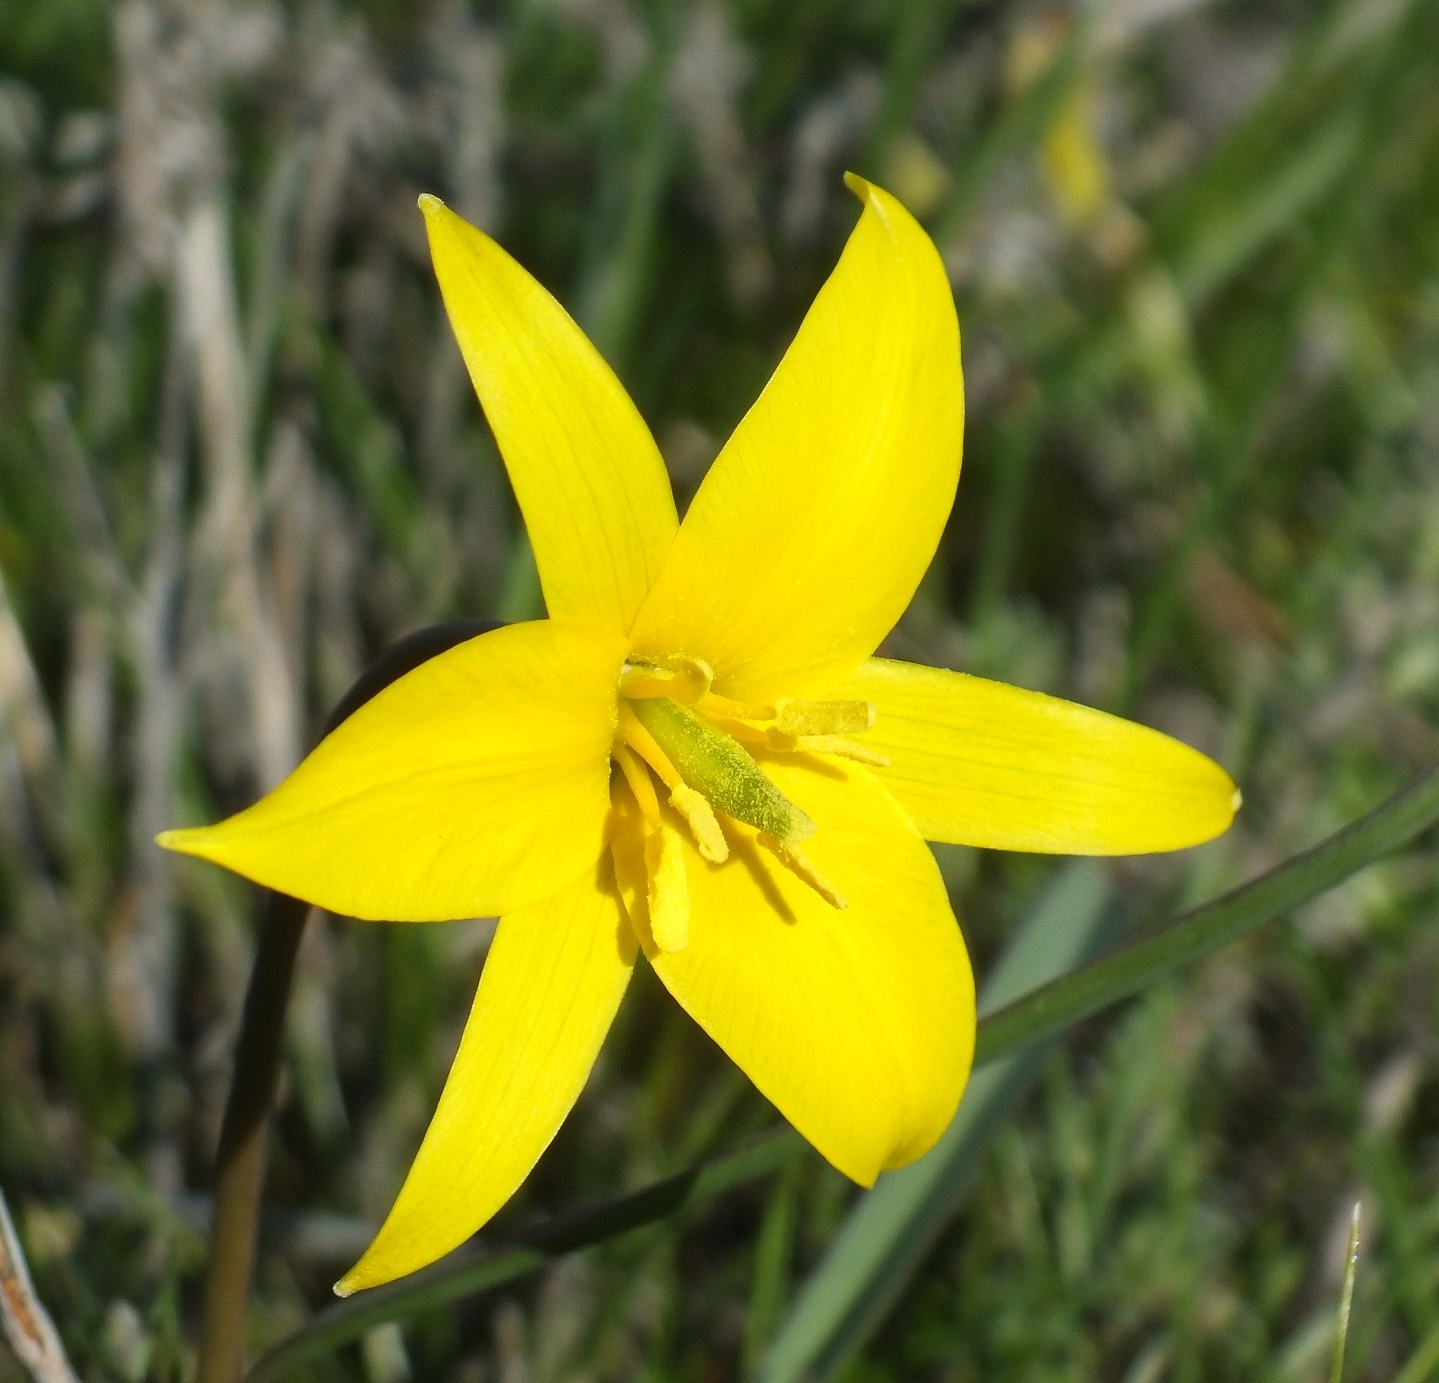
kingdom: Plantae
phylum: Tracheophyta
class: Liliopsida
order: Liliales
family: Liliaceae
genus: Tulipa
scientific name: Tulipa sylvestris
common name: Wild tulip
